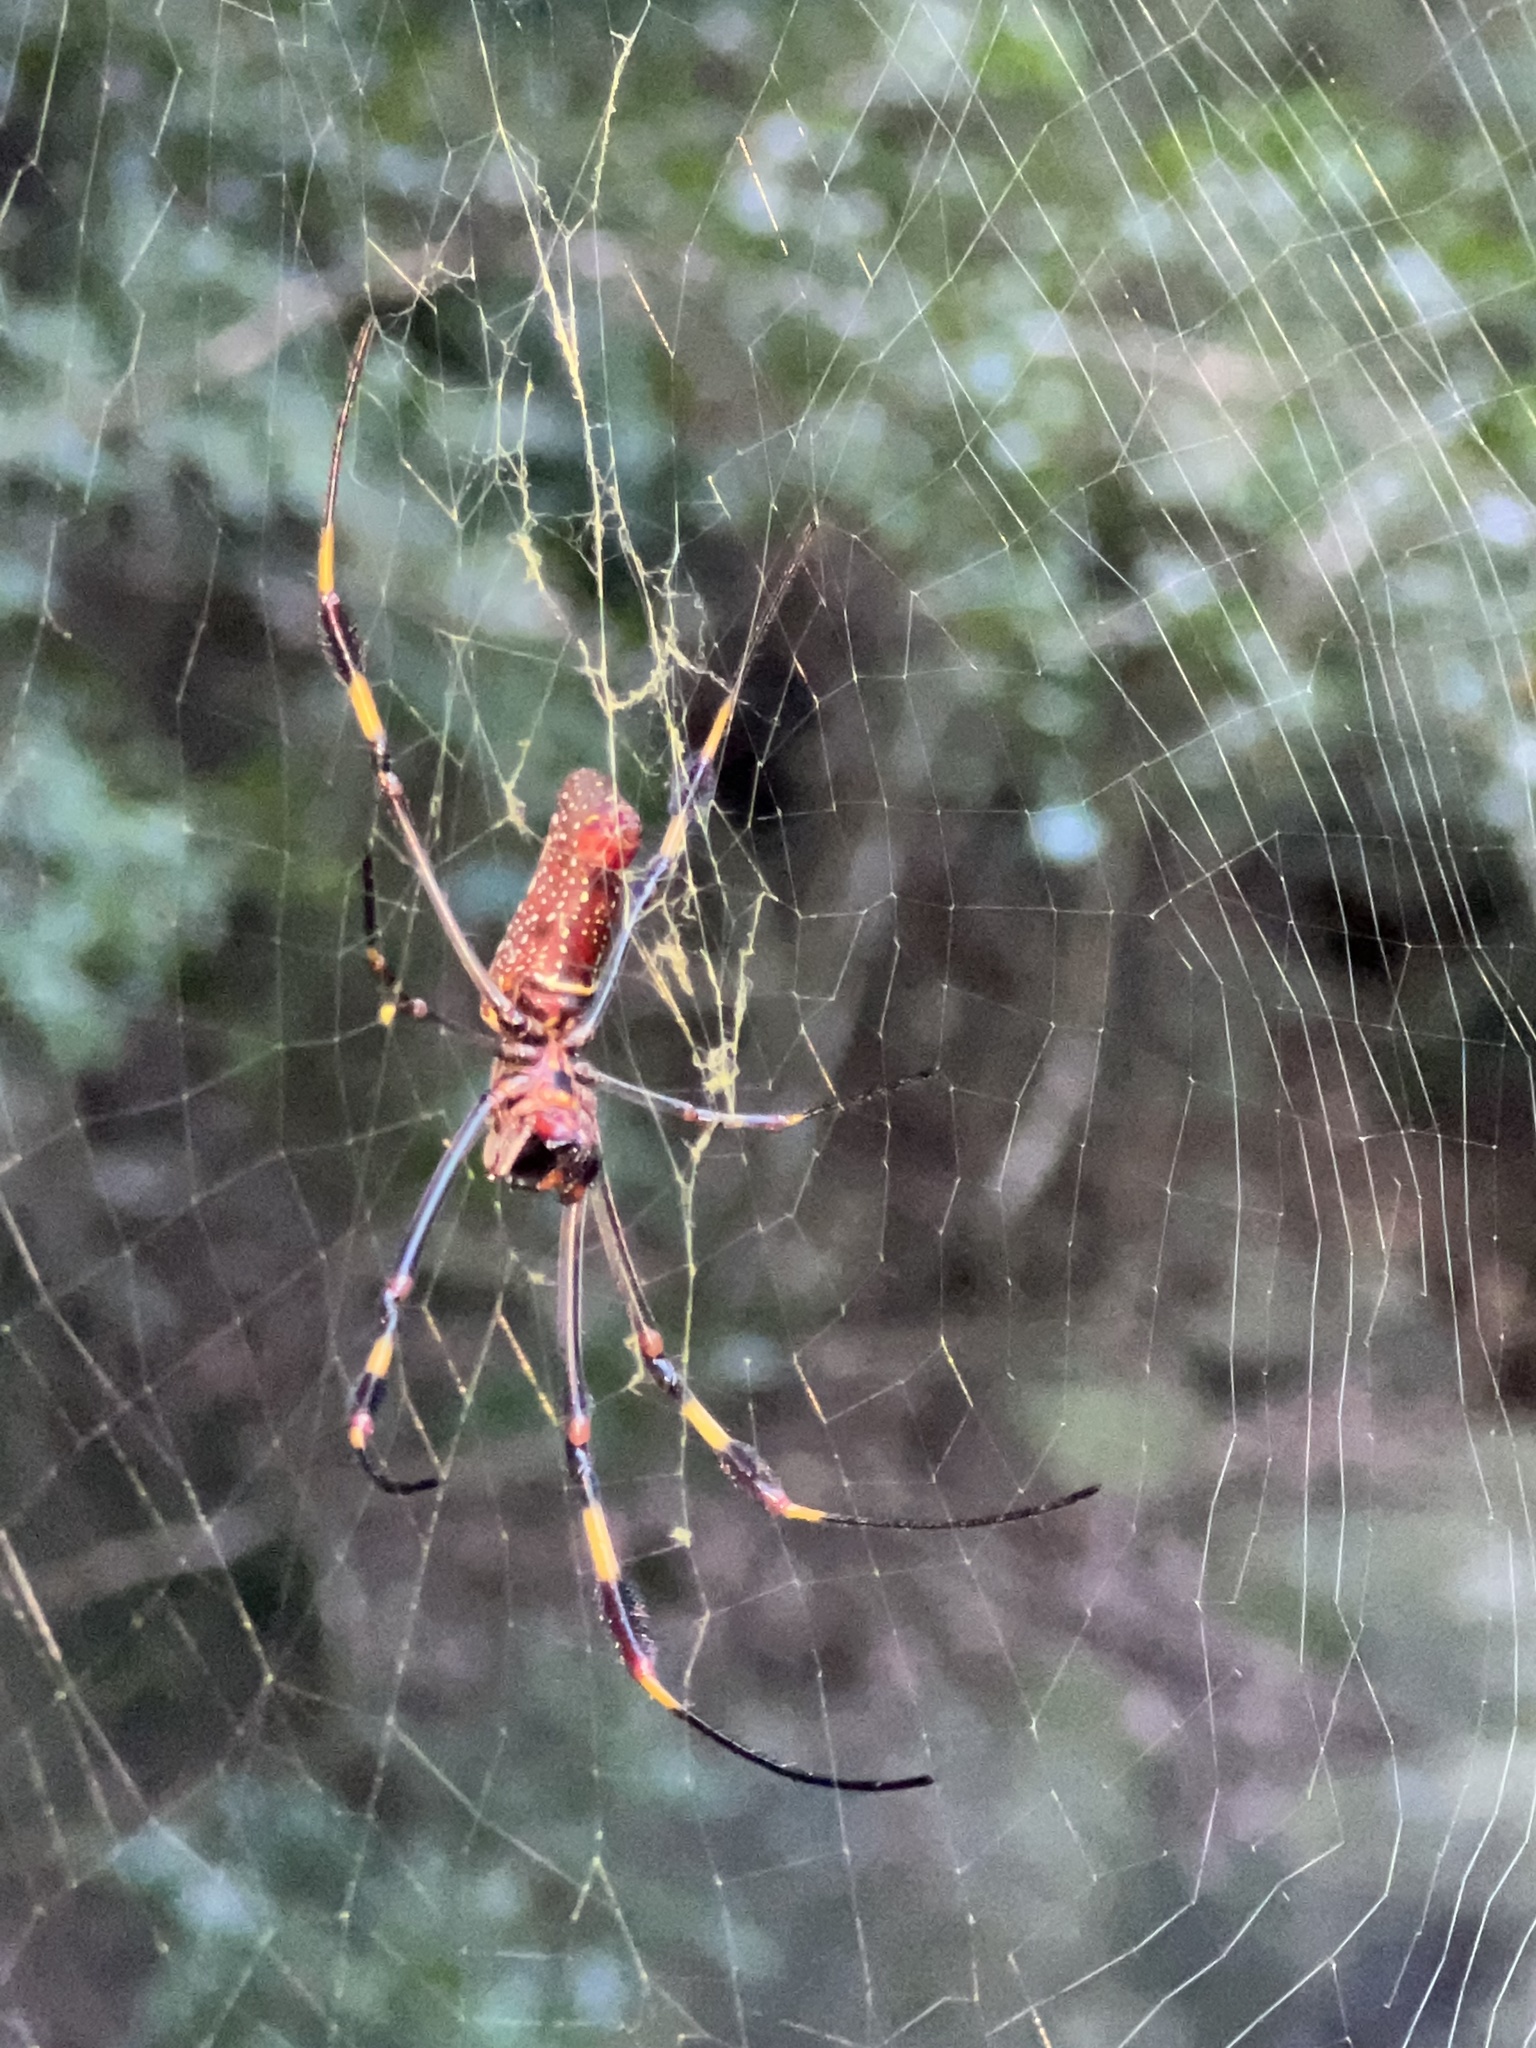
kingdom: Animalia
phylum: Arthropoda
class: Arachnida
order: Araneae
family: Araneidae
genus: Trichonephila
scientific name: Trichonephila clavipes
